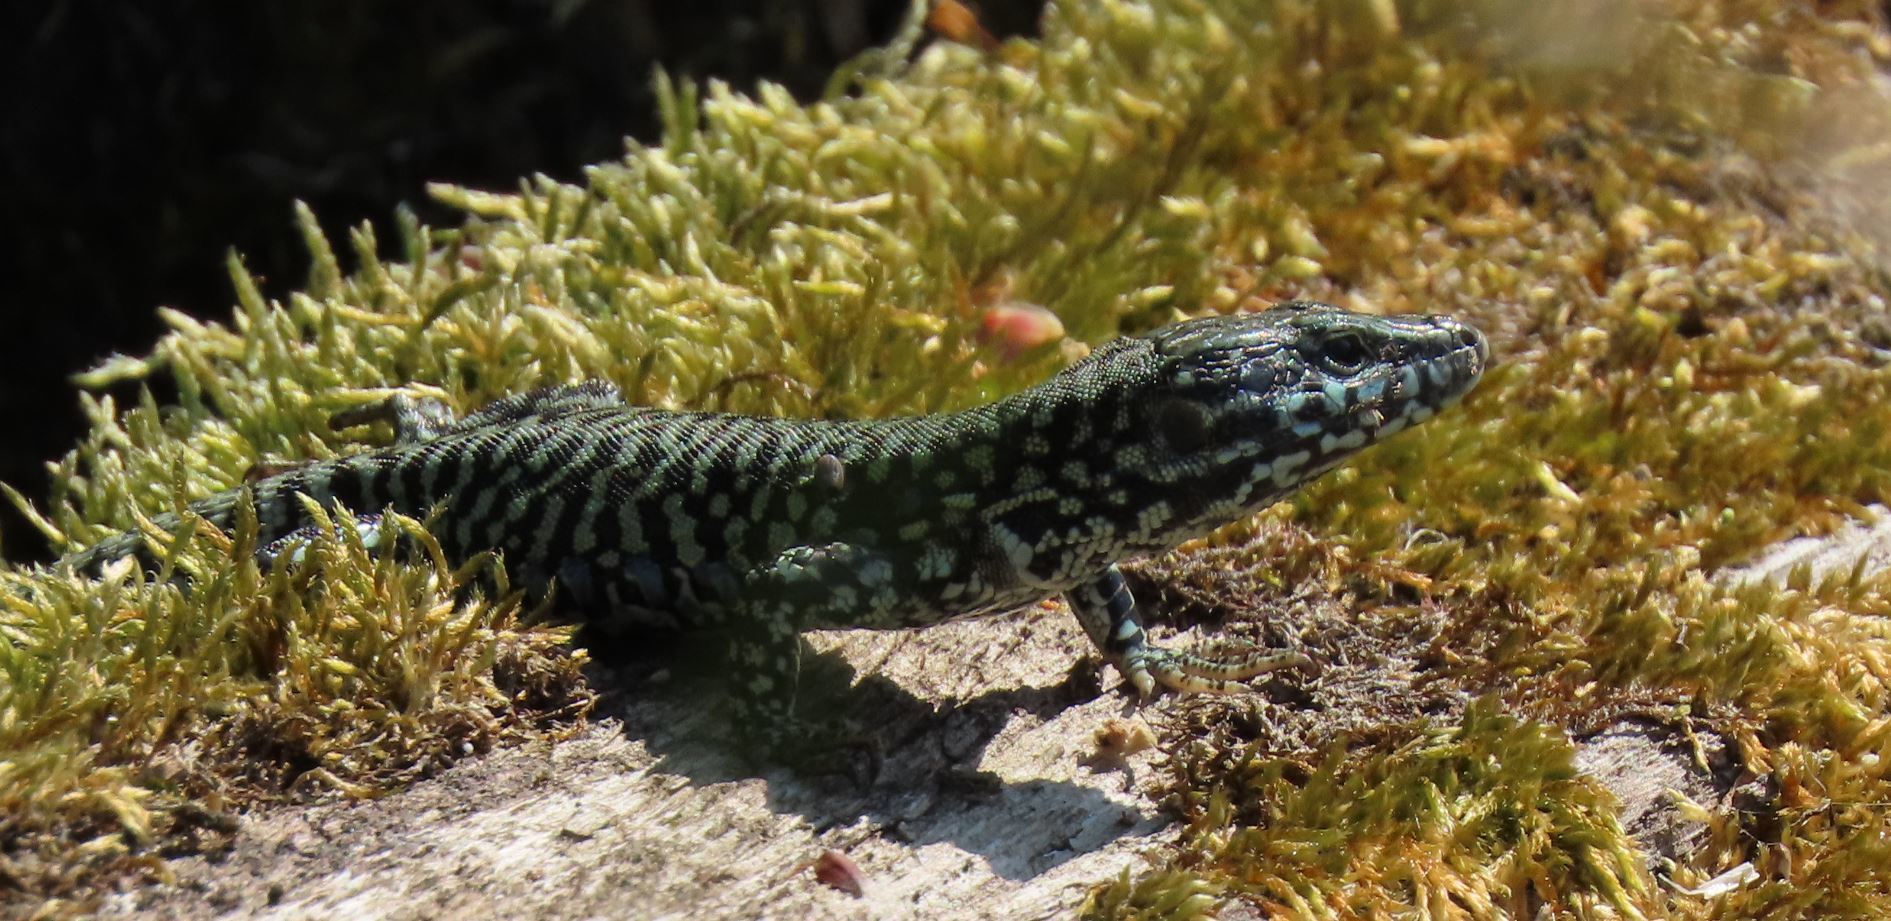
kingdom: Animalia
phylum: Chordata
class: Squamata
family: Lacertidae
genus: Podarcis
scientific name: Podarcis muralis
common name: Common wall lizard
